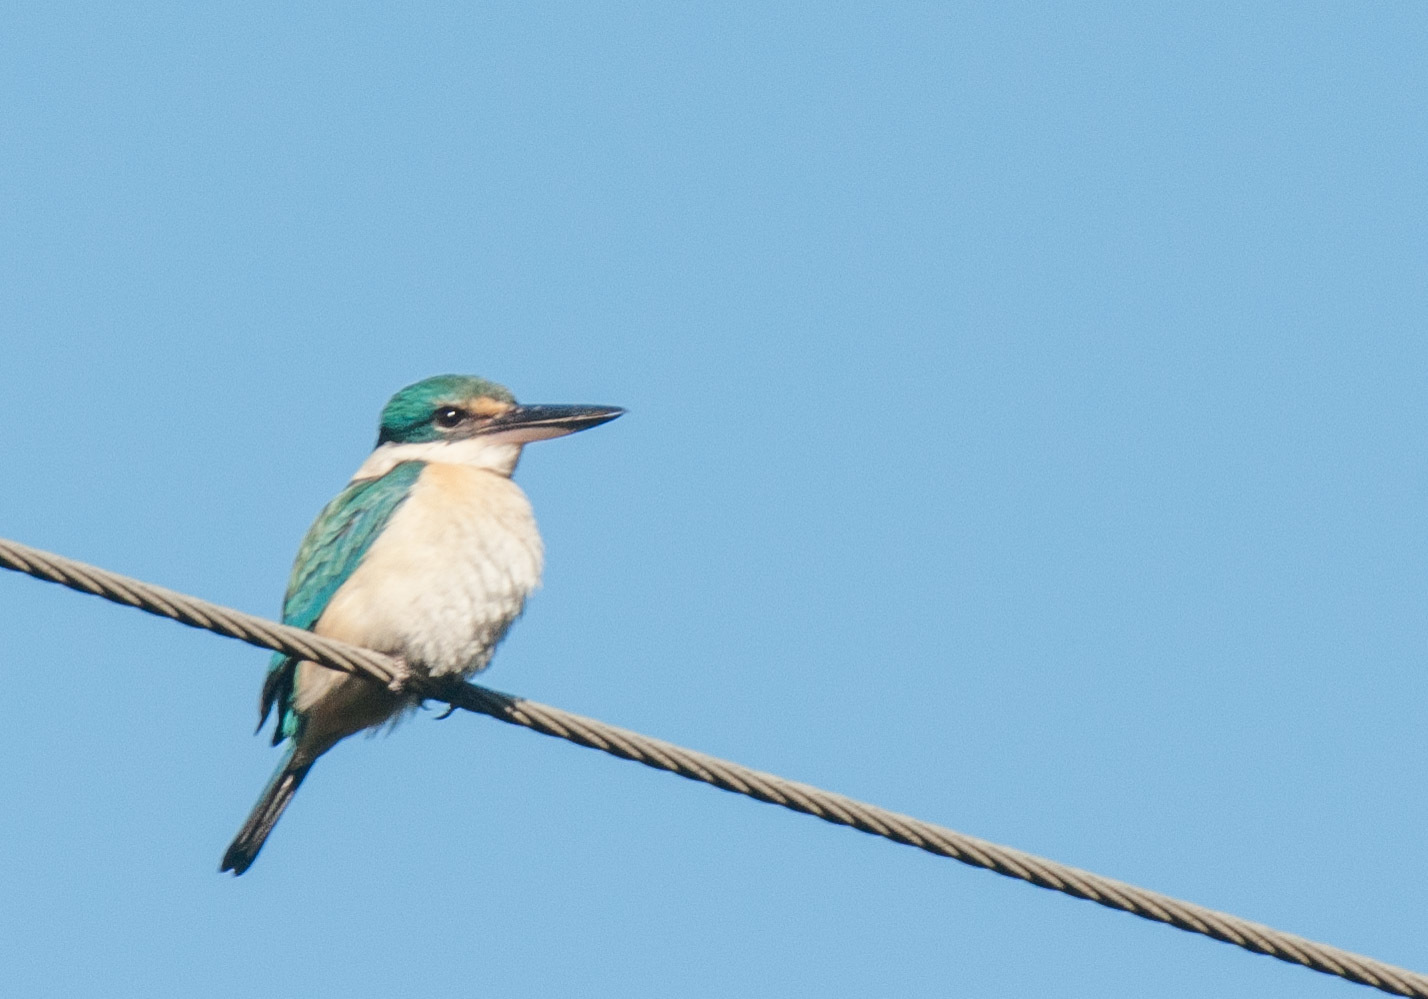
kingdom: Animalia
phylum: Chordata
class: Aves
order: Coraciiformes
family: Alcedinidae
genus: Todiramphus
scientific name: Todiramphus sanctus
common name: Sacred kingfisher
